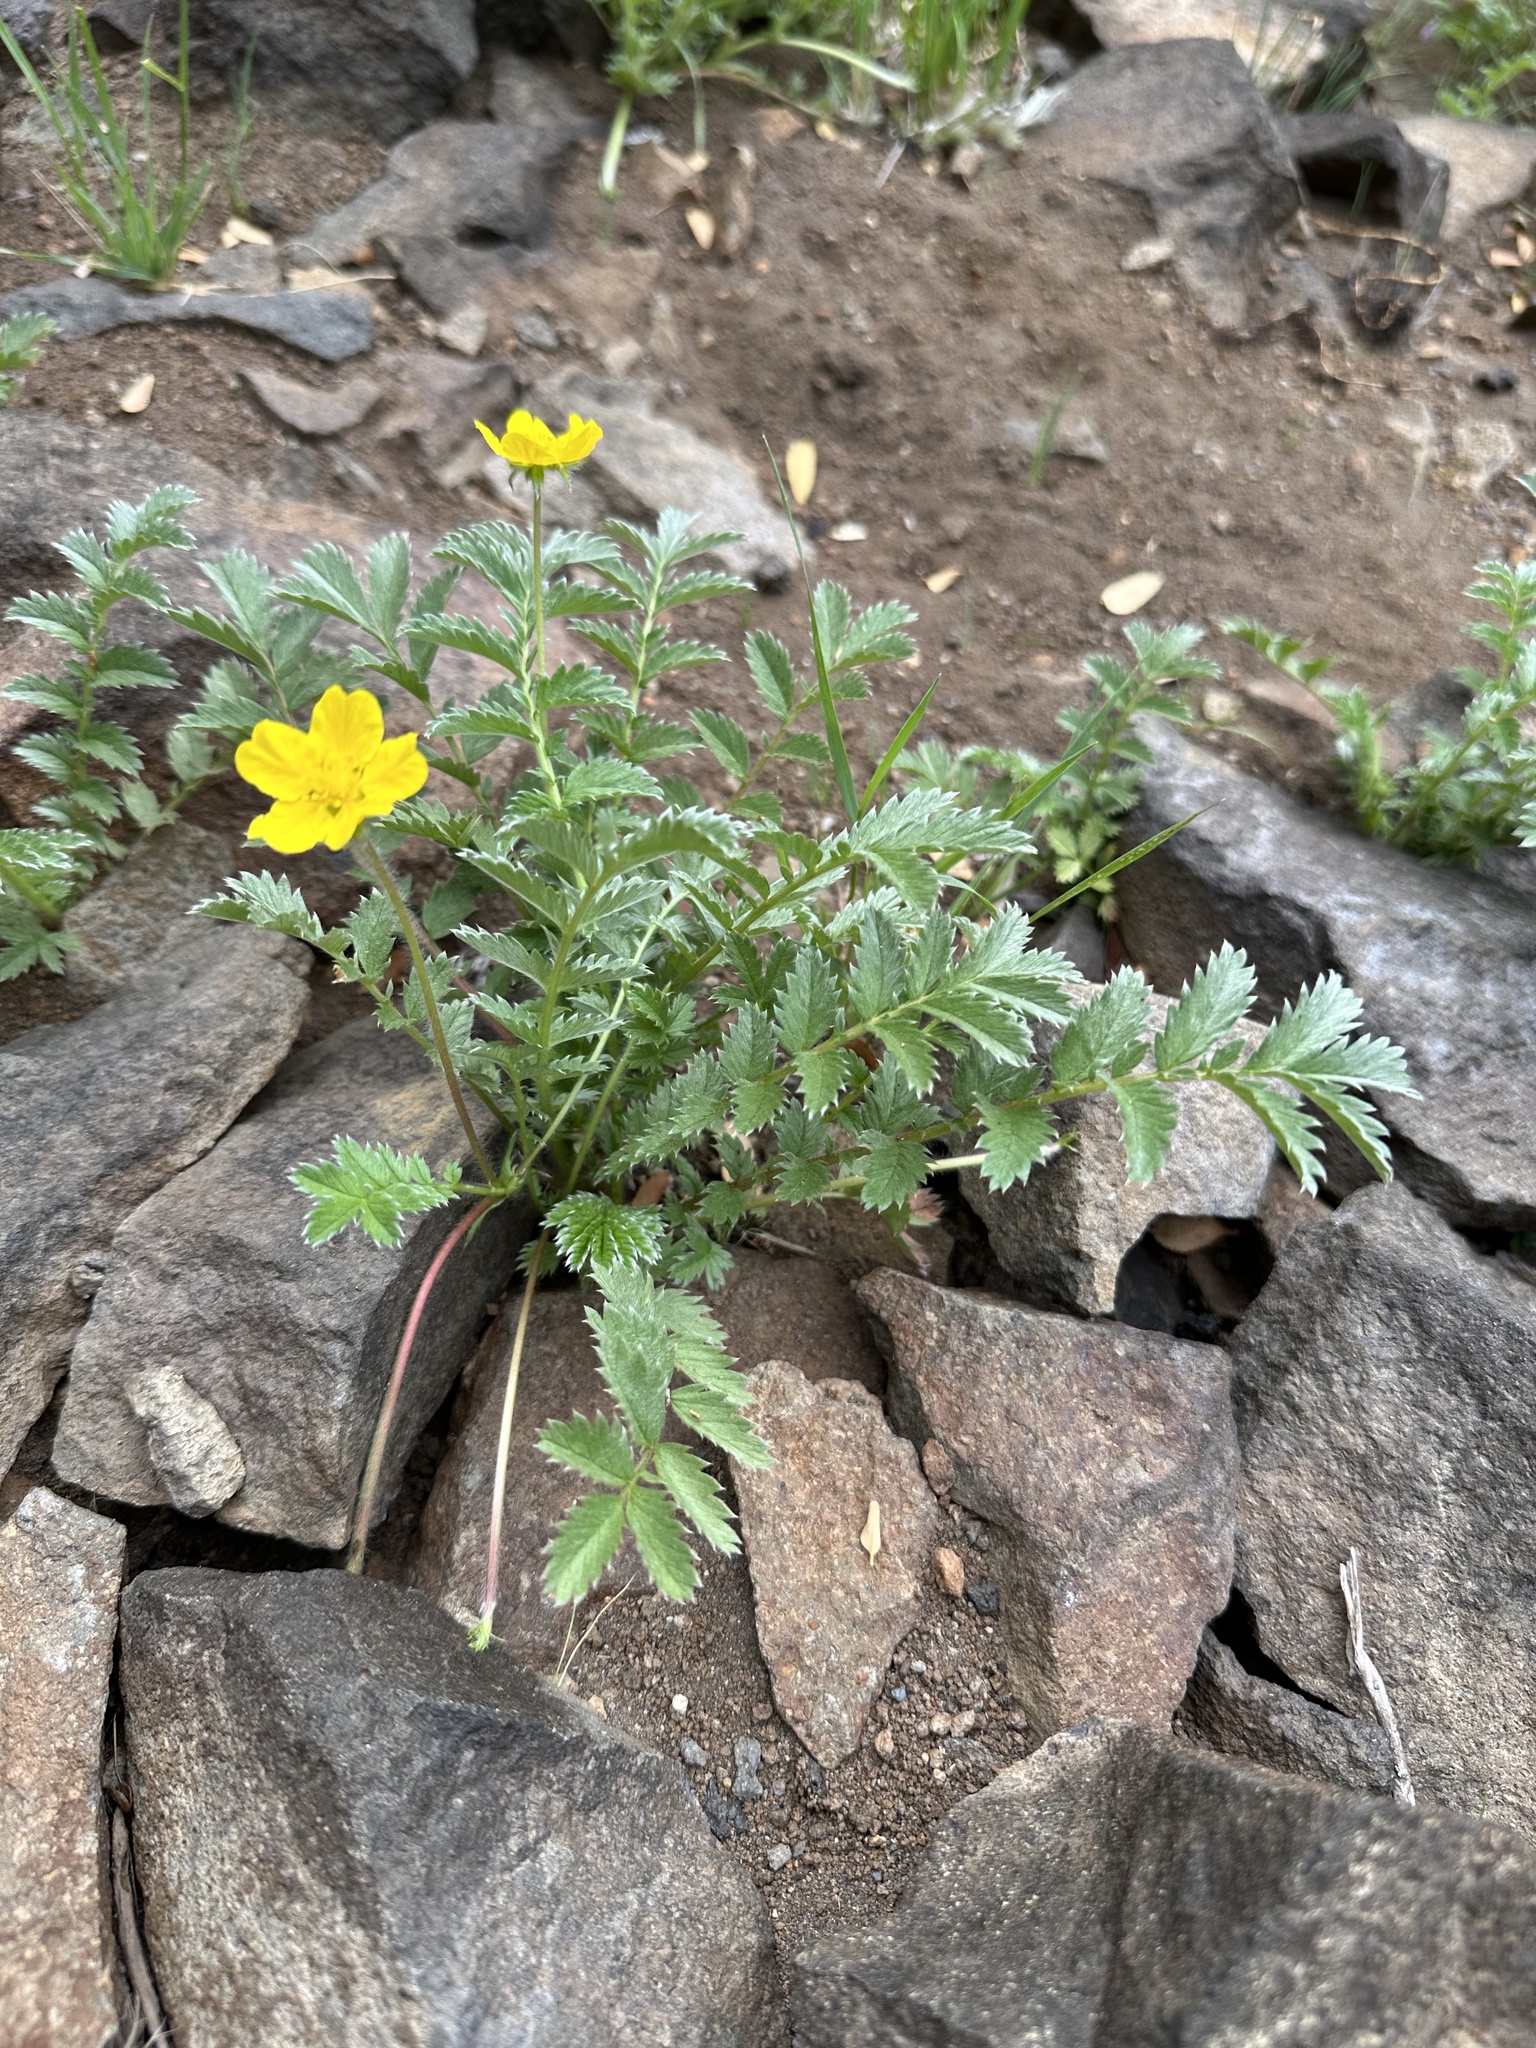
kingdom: Plantae
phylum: Tracheophyta
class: Magnoliopsida
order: Rosales
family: Rosaceae
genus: Argentina
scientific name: Argentina anserina
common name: Common silverweed
